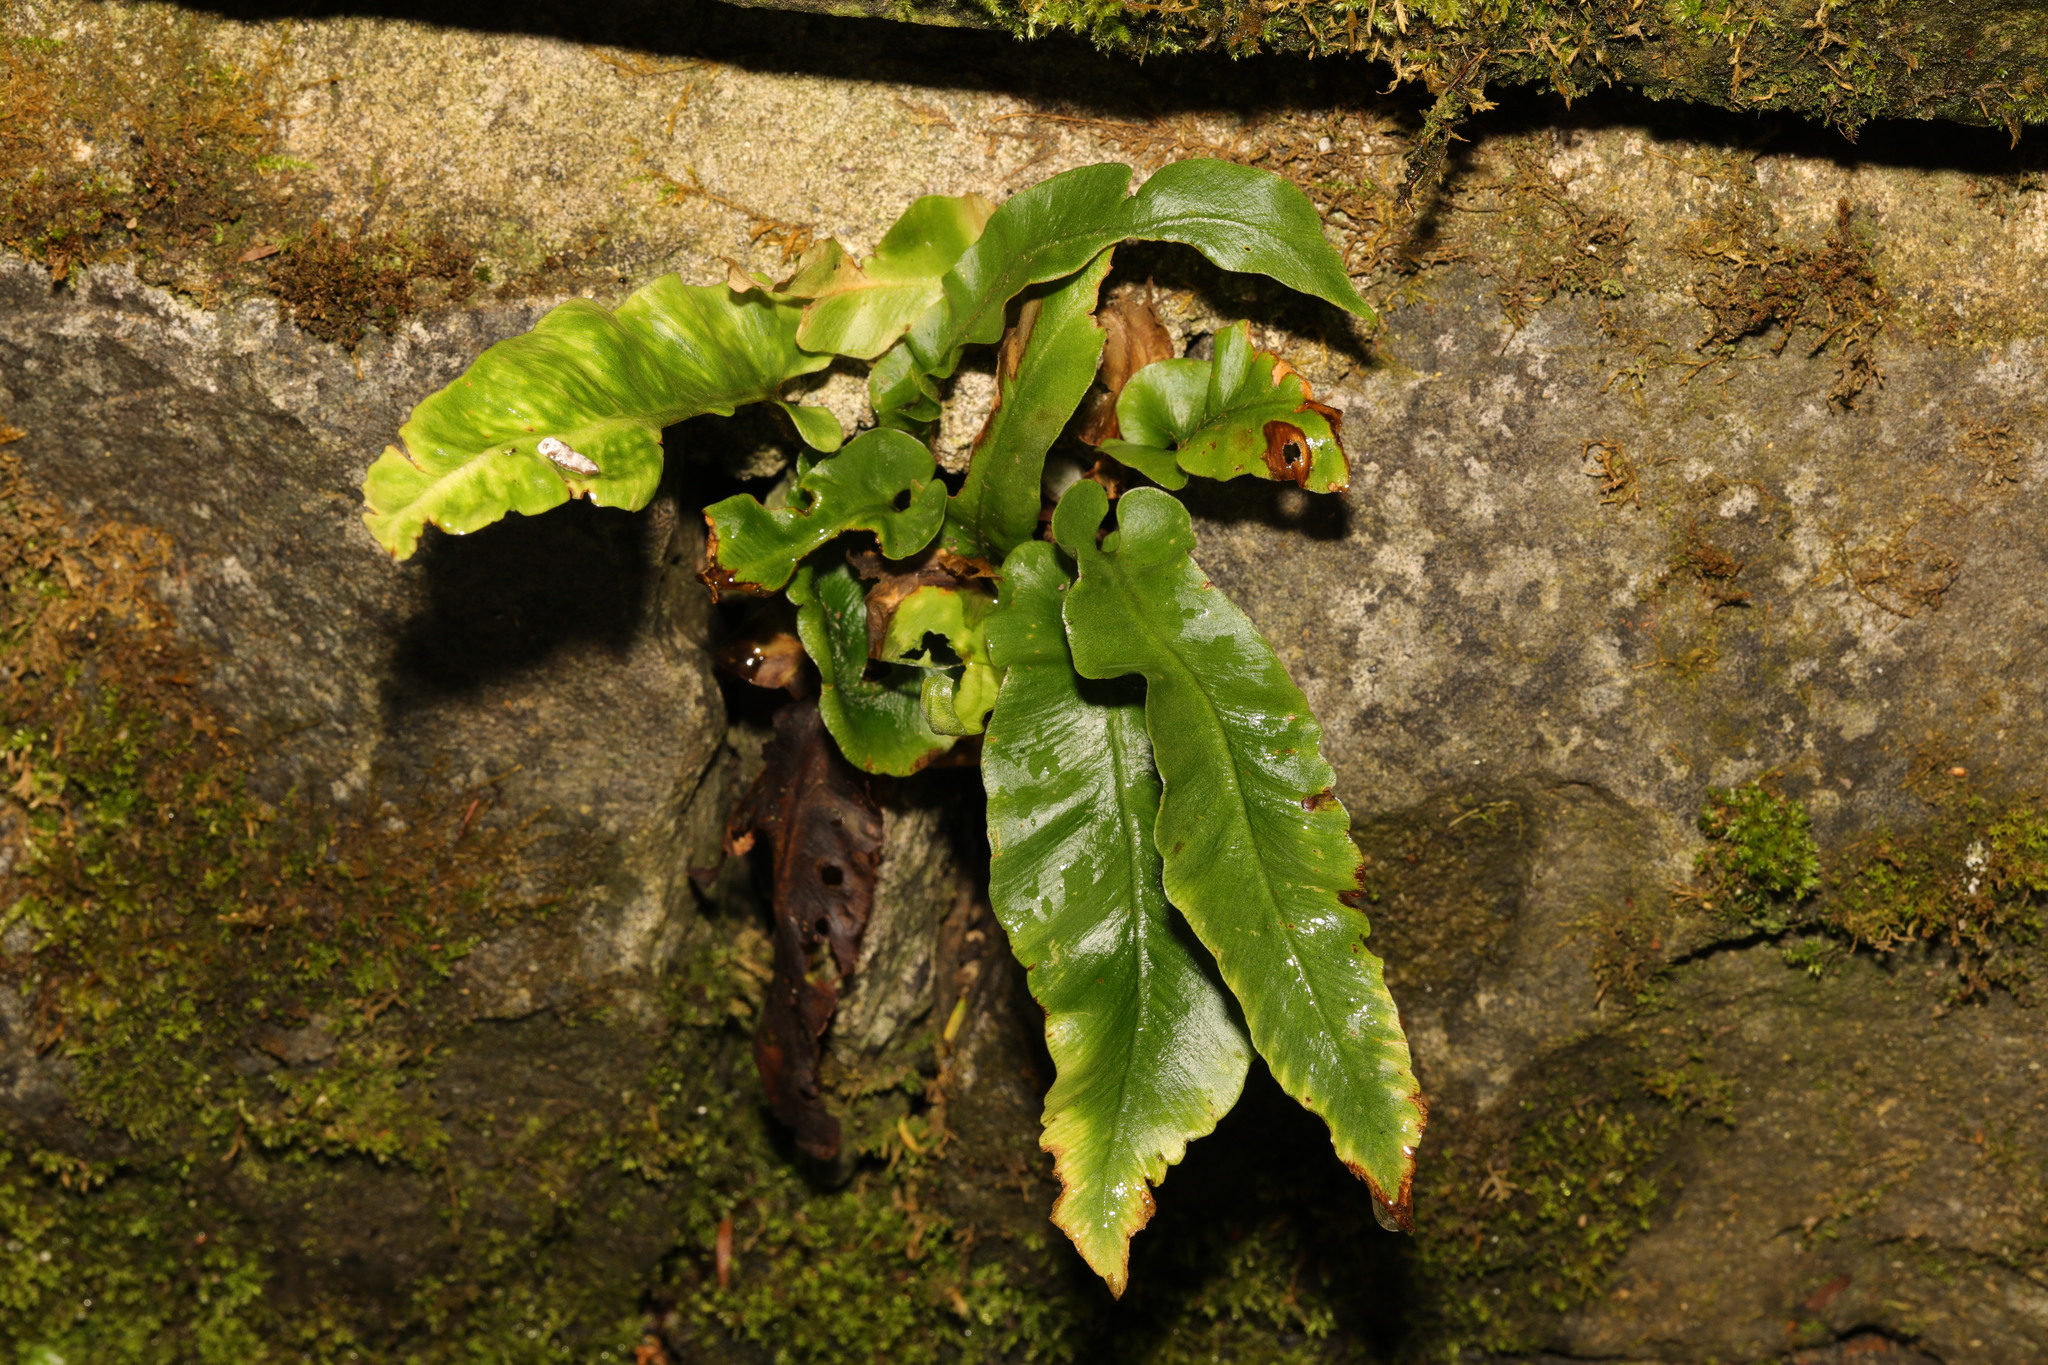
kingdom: Plantae
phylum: Tracheophyta
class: Polypodiopsida
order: Polypodiales
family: Aspleniaceae
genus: Asplenium
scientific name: Asplenium scolopendrium
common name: Hart's-tongue fern
